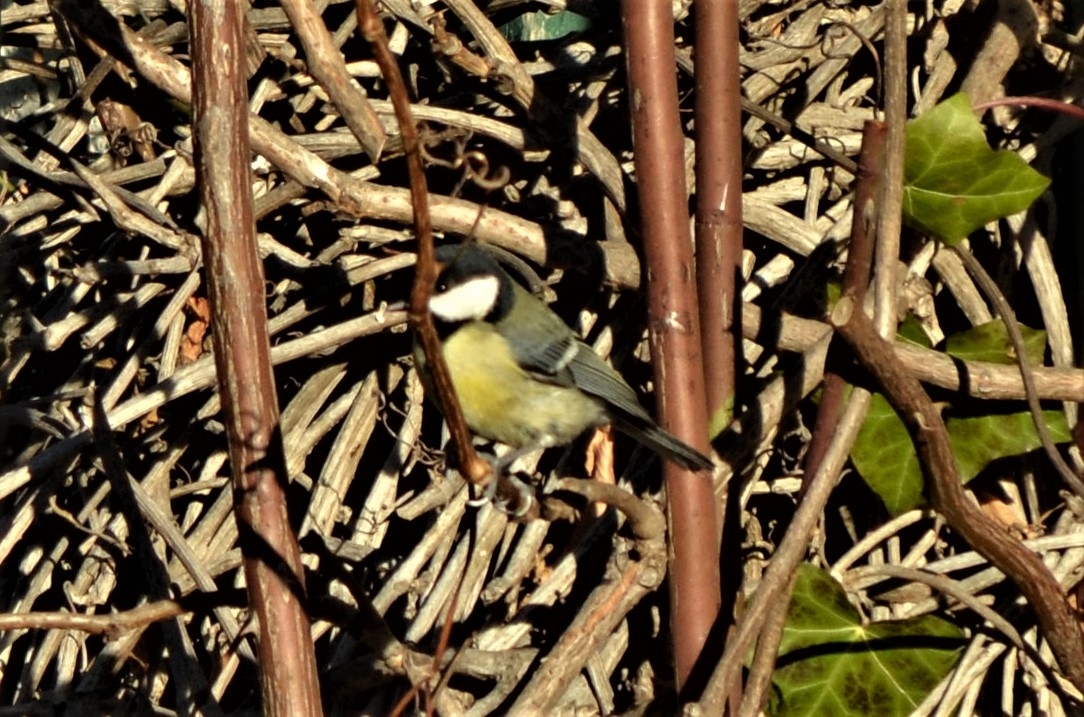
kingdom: Animalia
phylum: Chordata
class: Aves
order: Passeriformes
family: Paridae
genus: Parus
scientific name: Parus major
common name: Great tit
